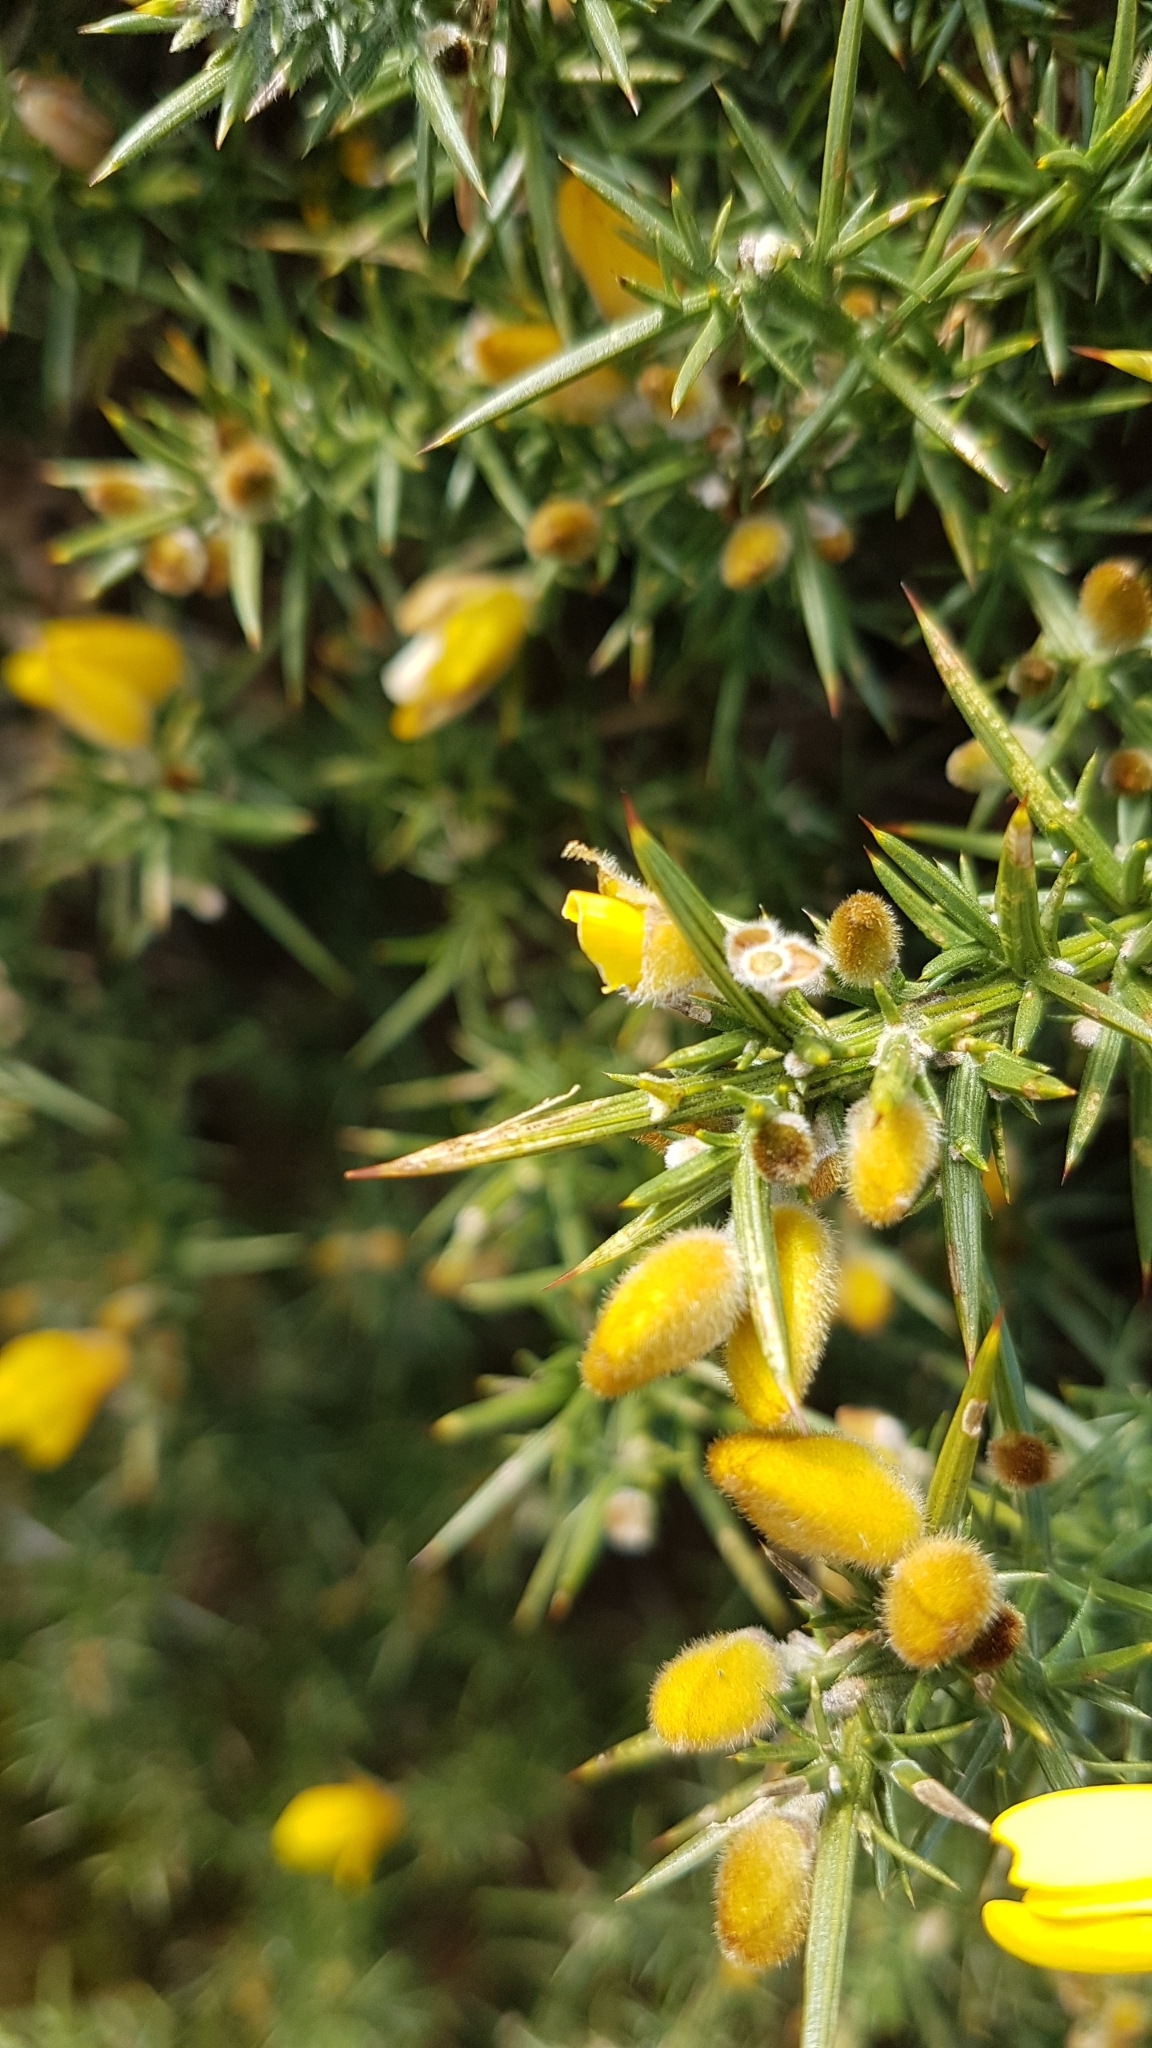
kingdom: Plantae
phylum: Tracheophyta
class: Magnoliopsida
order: Fabales
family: Fabaceae
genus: Ulex
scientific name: Ulex europaeus
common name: Common gorse
